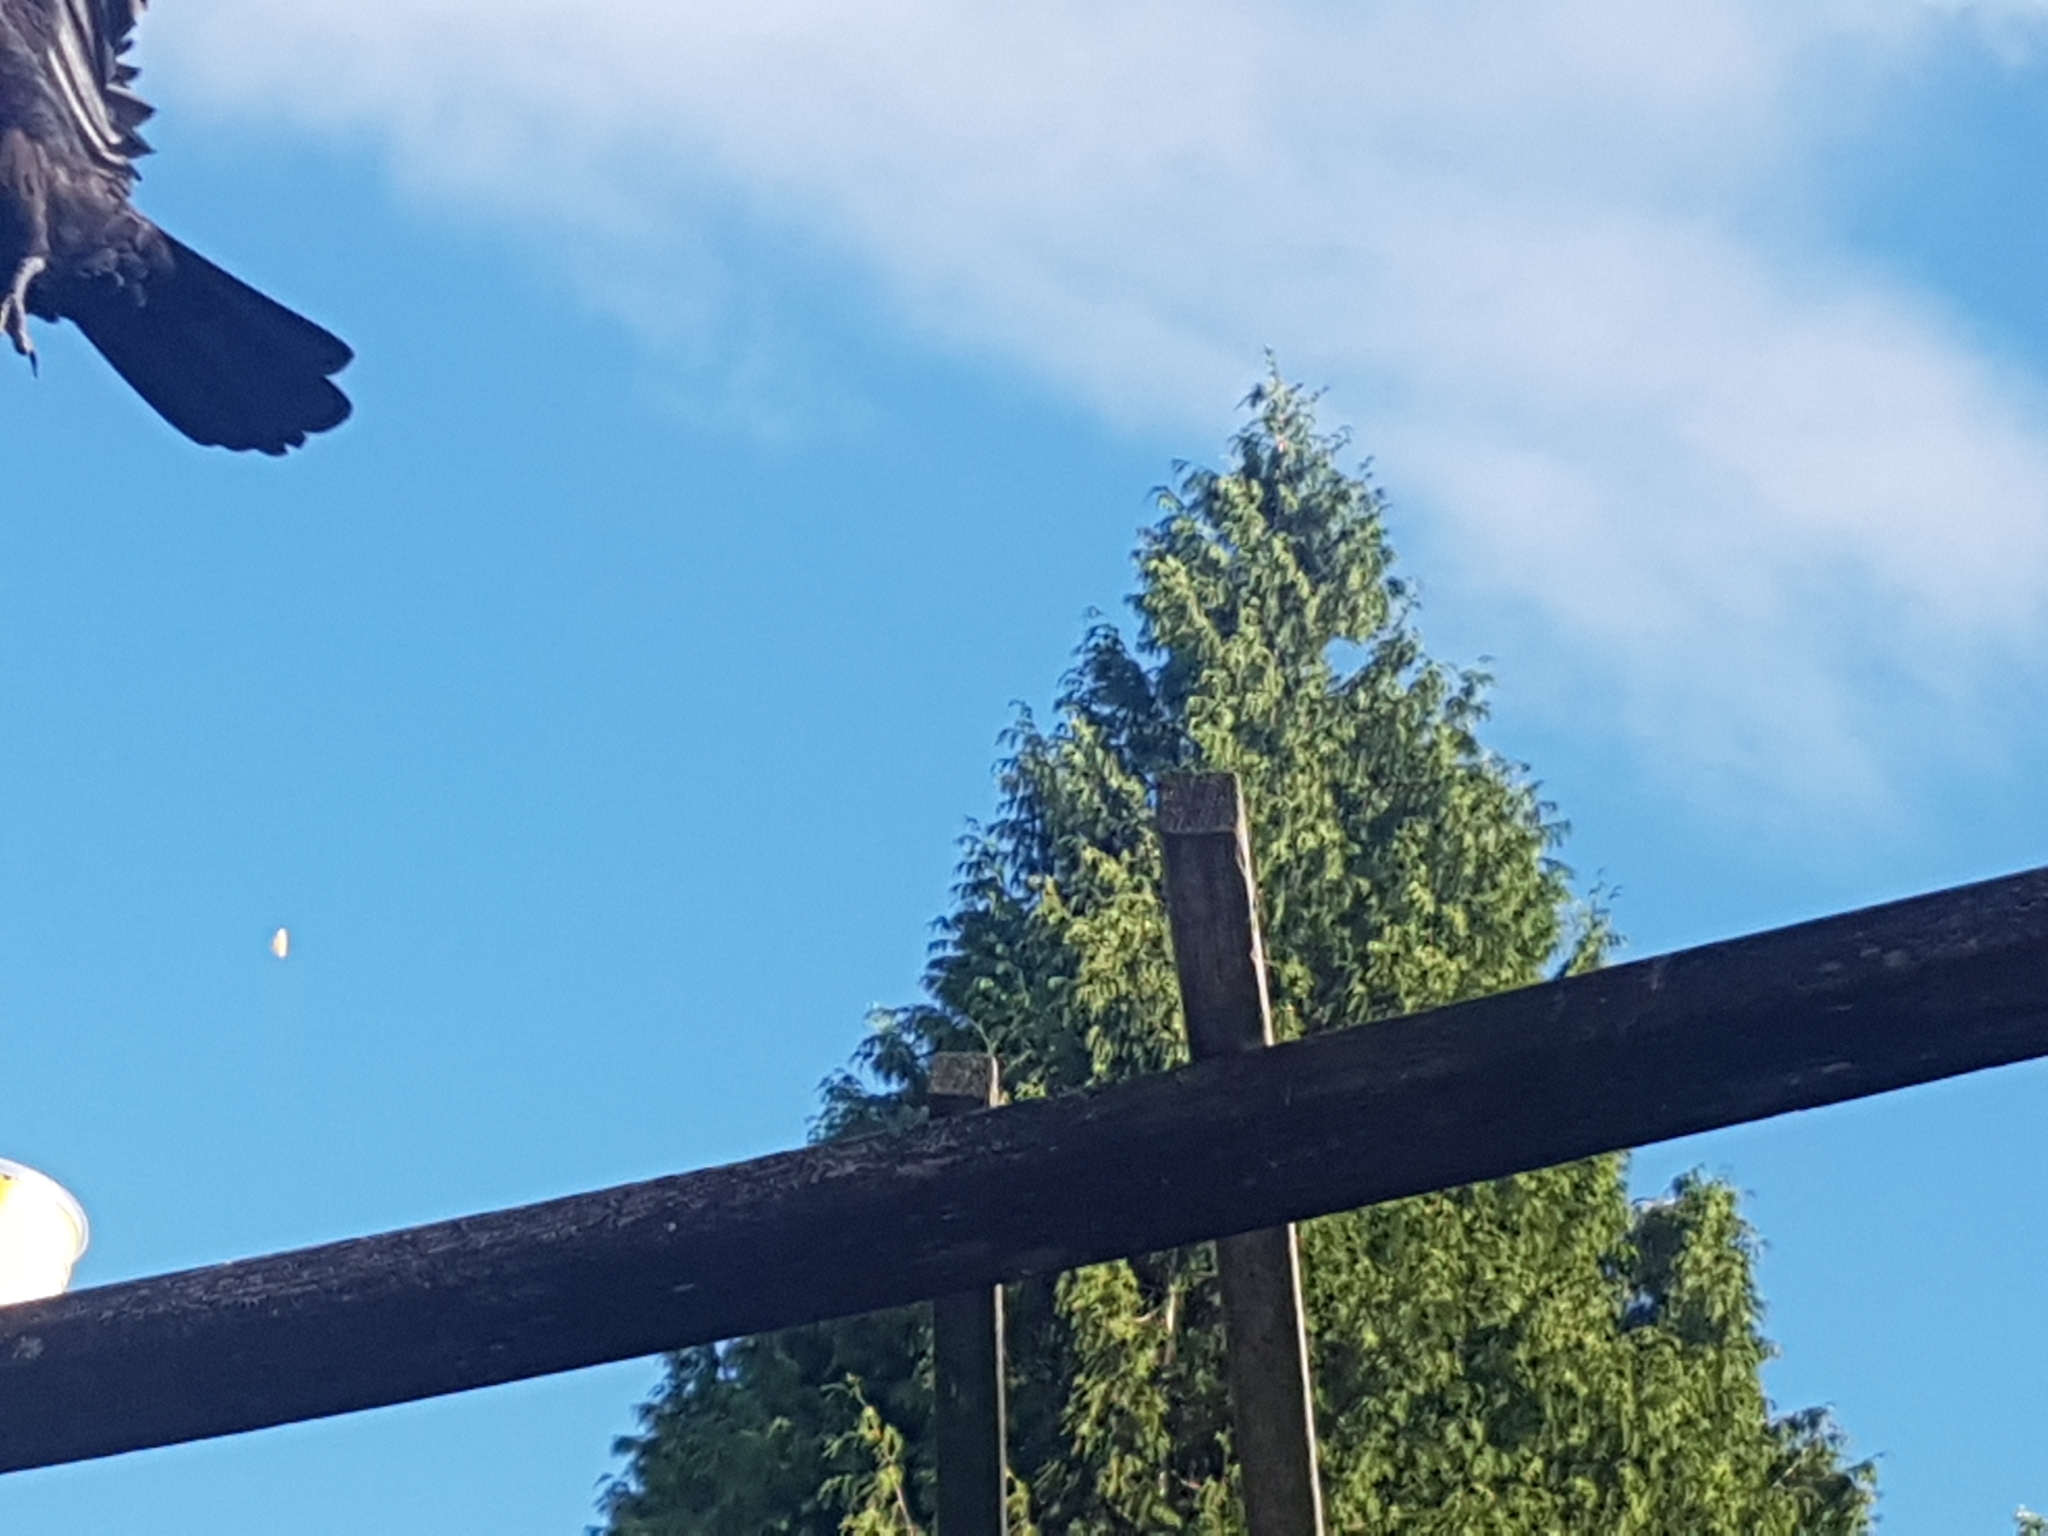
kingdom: Animalia
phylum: Chordata
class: Aves
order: Passeriformes
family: Corvidae
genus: Corvus
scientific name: Corvus brachyrhynchos
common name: American crow
